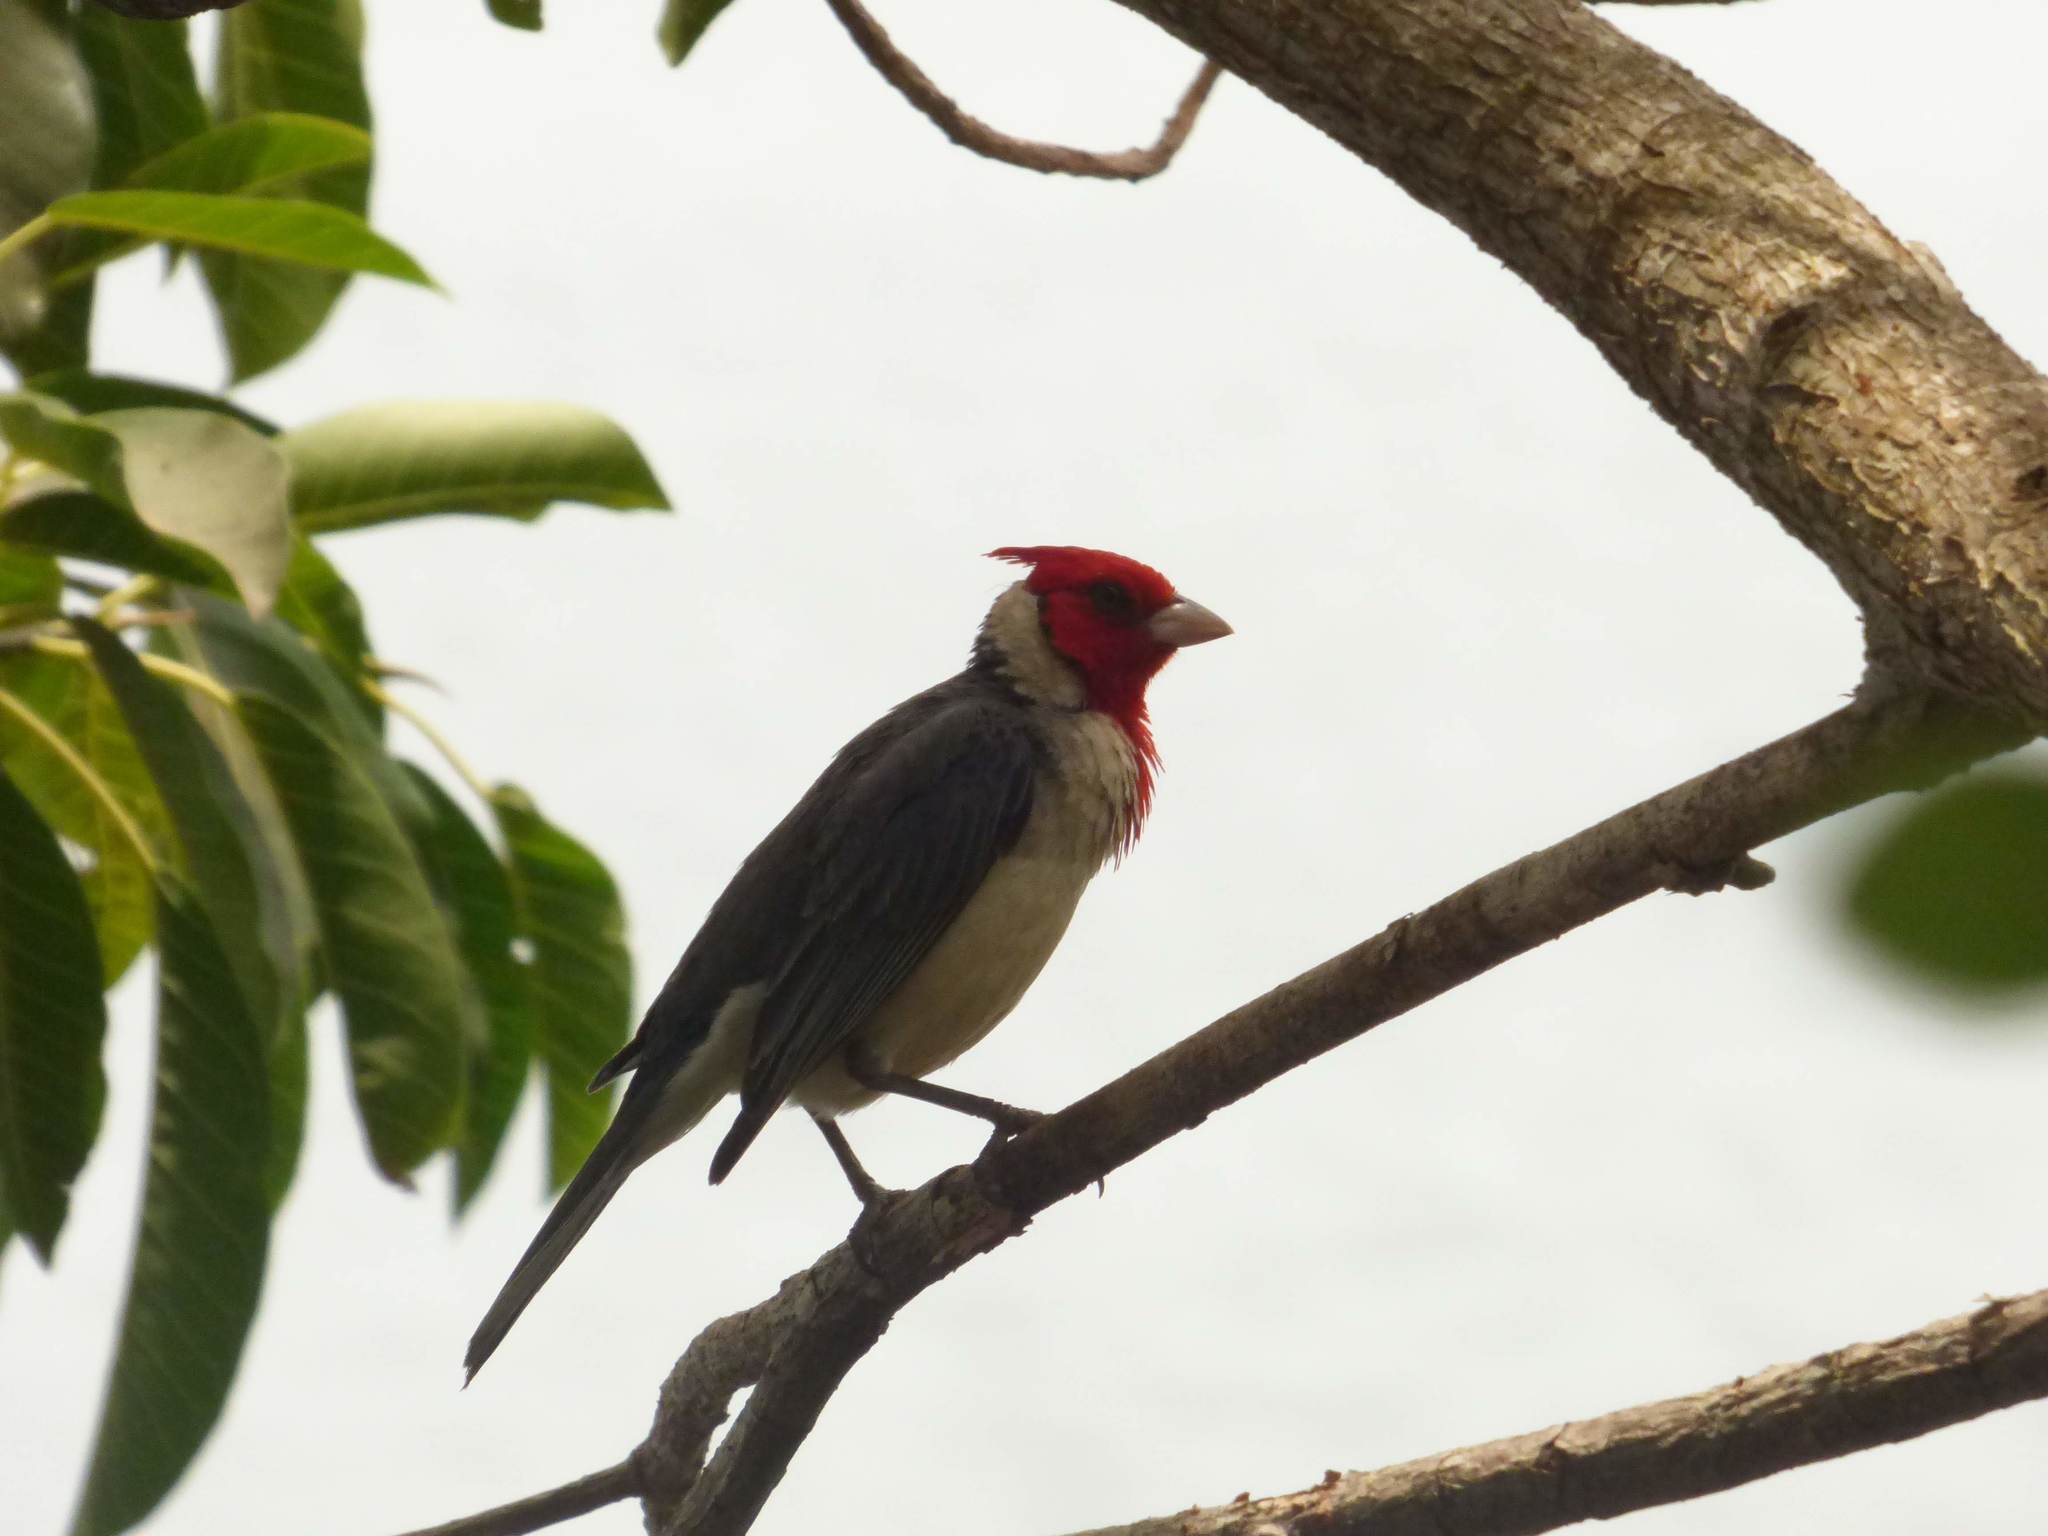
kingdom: Animalia
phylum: Chordata
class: Aves
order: Passeriformes
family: Thraupidae
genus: Paroaria
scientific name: Paroaria coronata
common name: Red-crested cardinal
